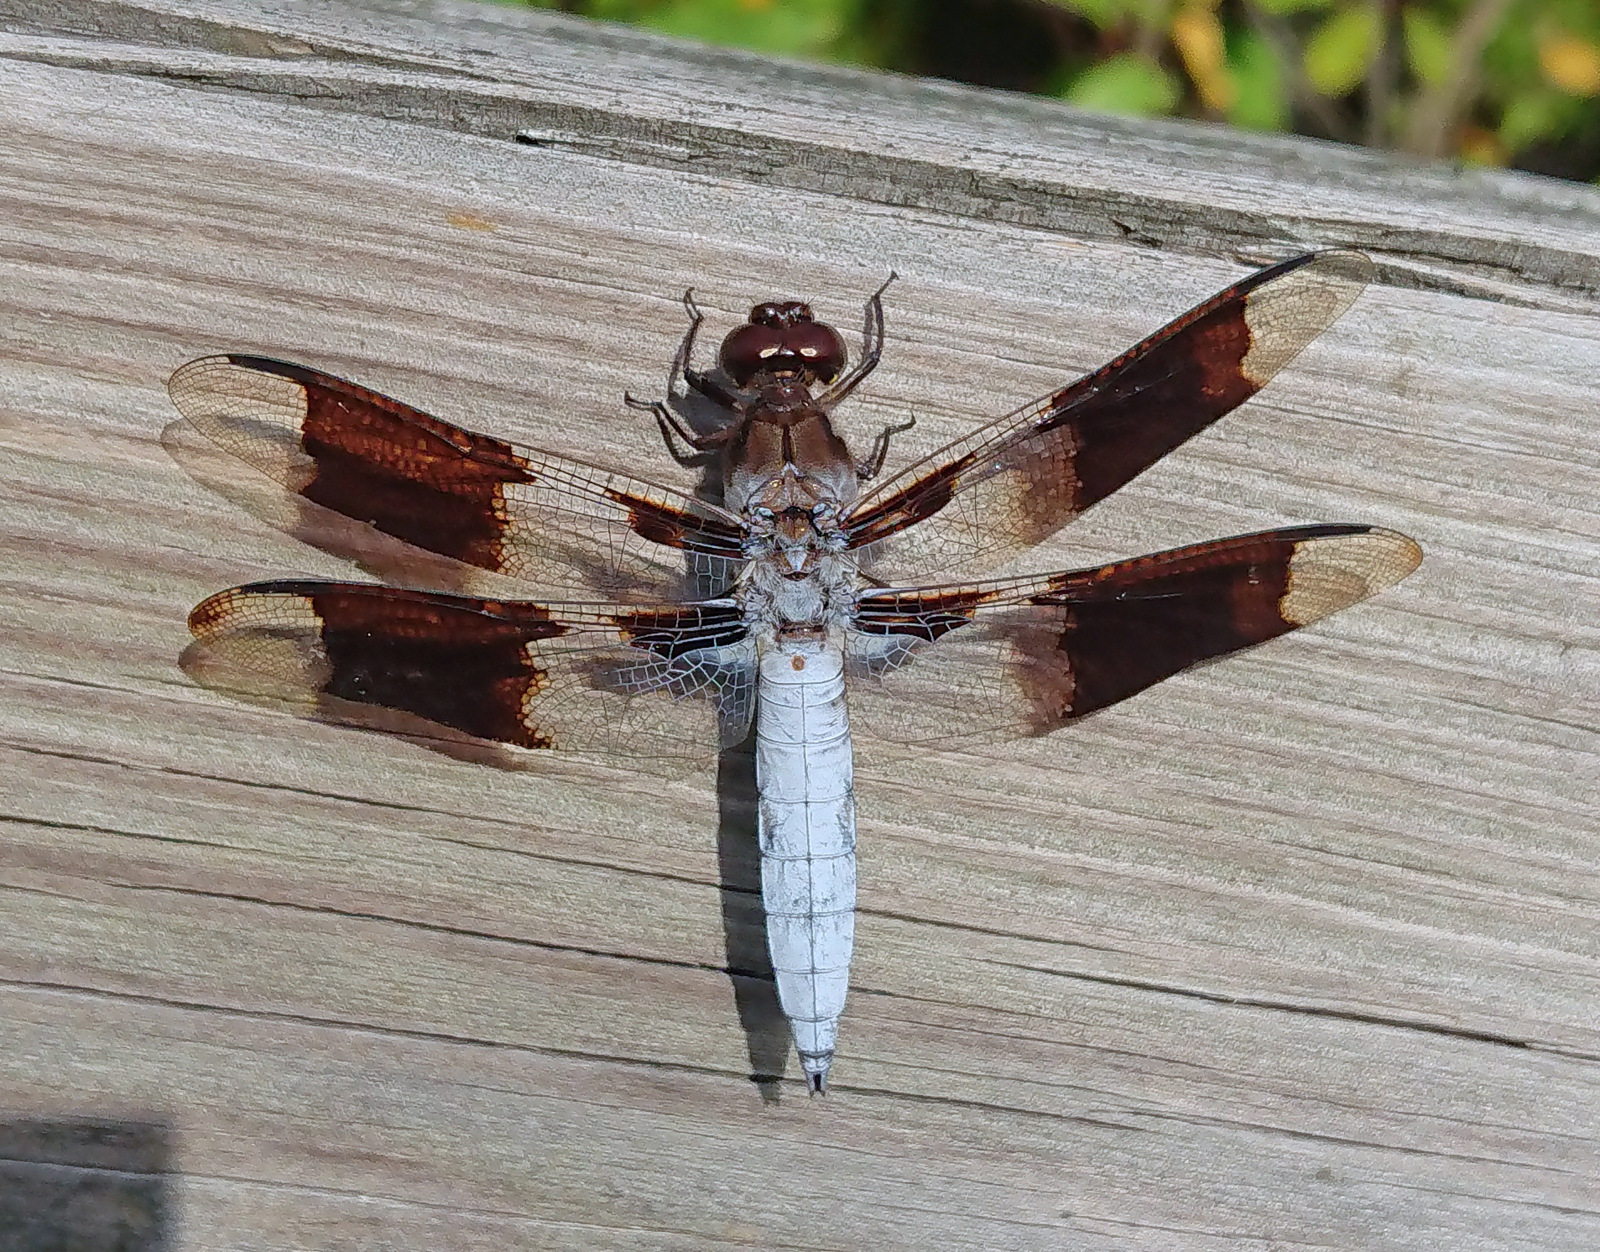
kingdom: Animalia
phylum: Arthropoda
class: Insecta
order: Odonata
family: Libellulidae
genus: Plathemis
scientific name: Plathemis lydia
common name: Common whitetail
